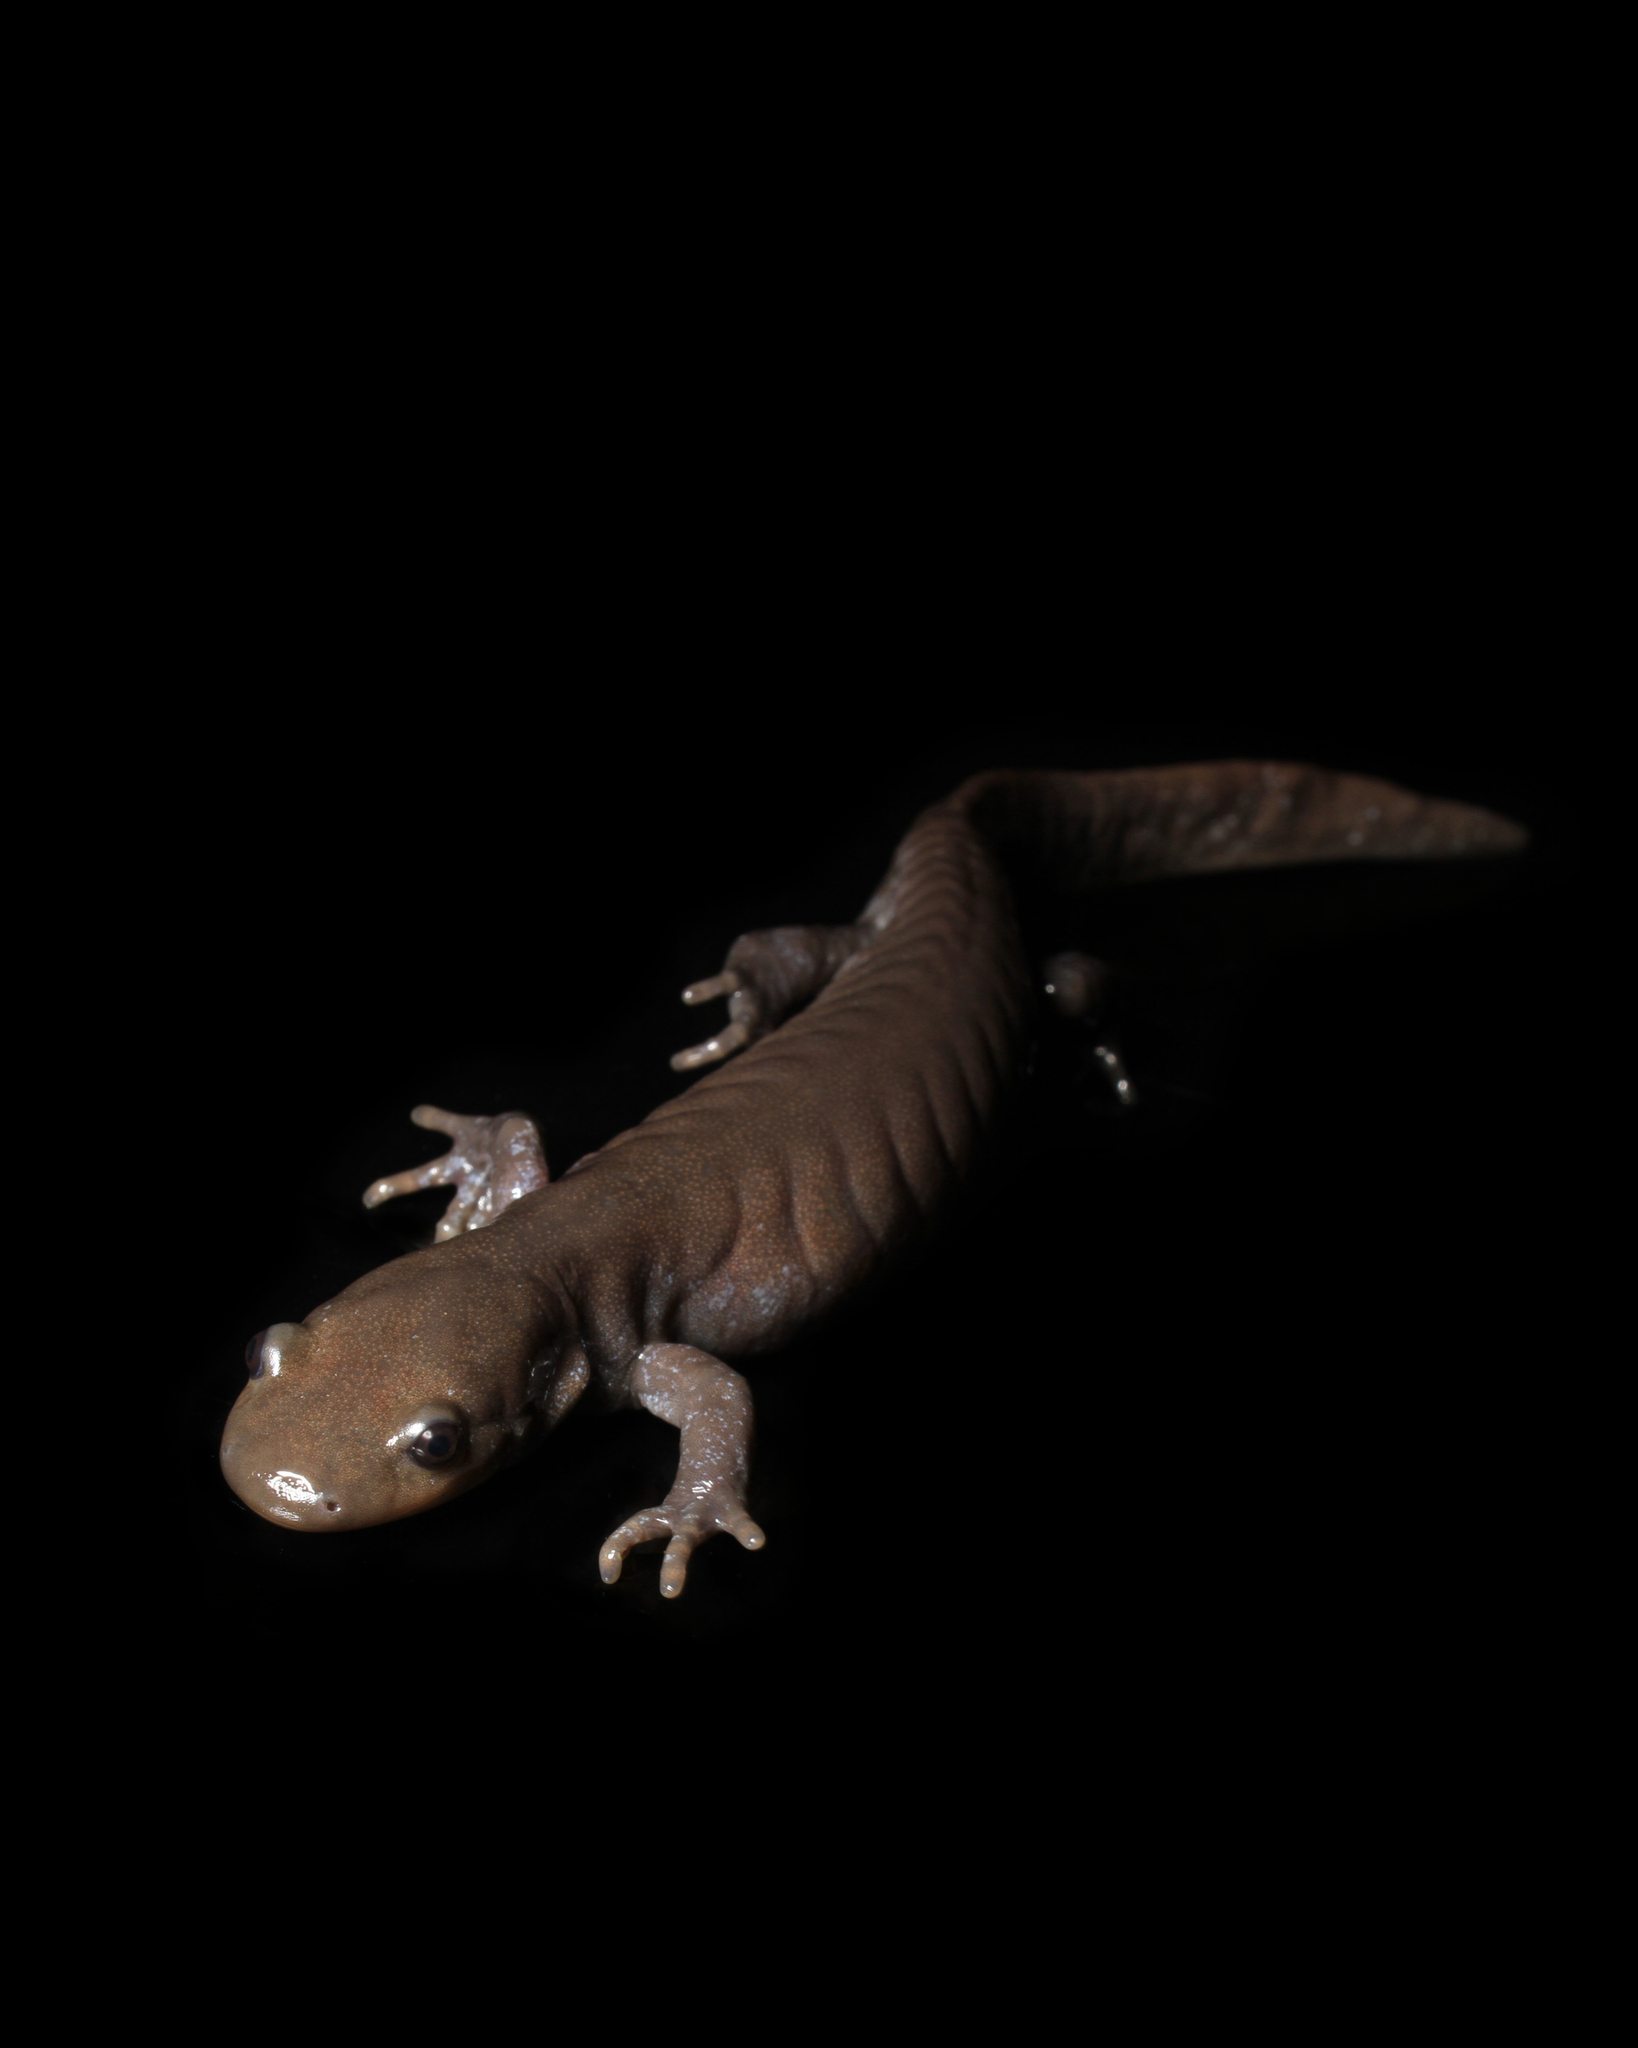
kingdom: Animalia
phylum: Chordata
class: Amphibia
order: Caudata
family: Ambystomatidae
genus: Ambystoma
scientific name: Ambystoma jeffersonianum
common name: Jefferson salamander
